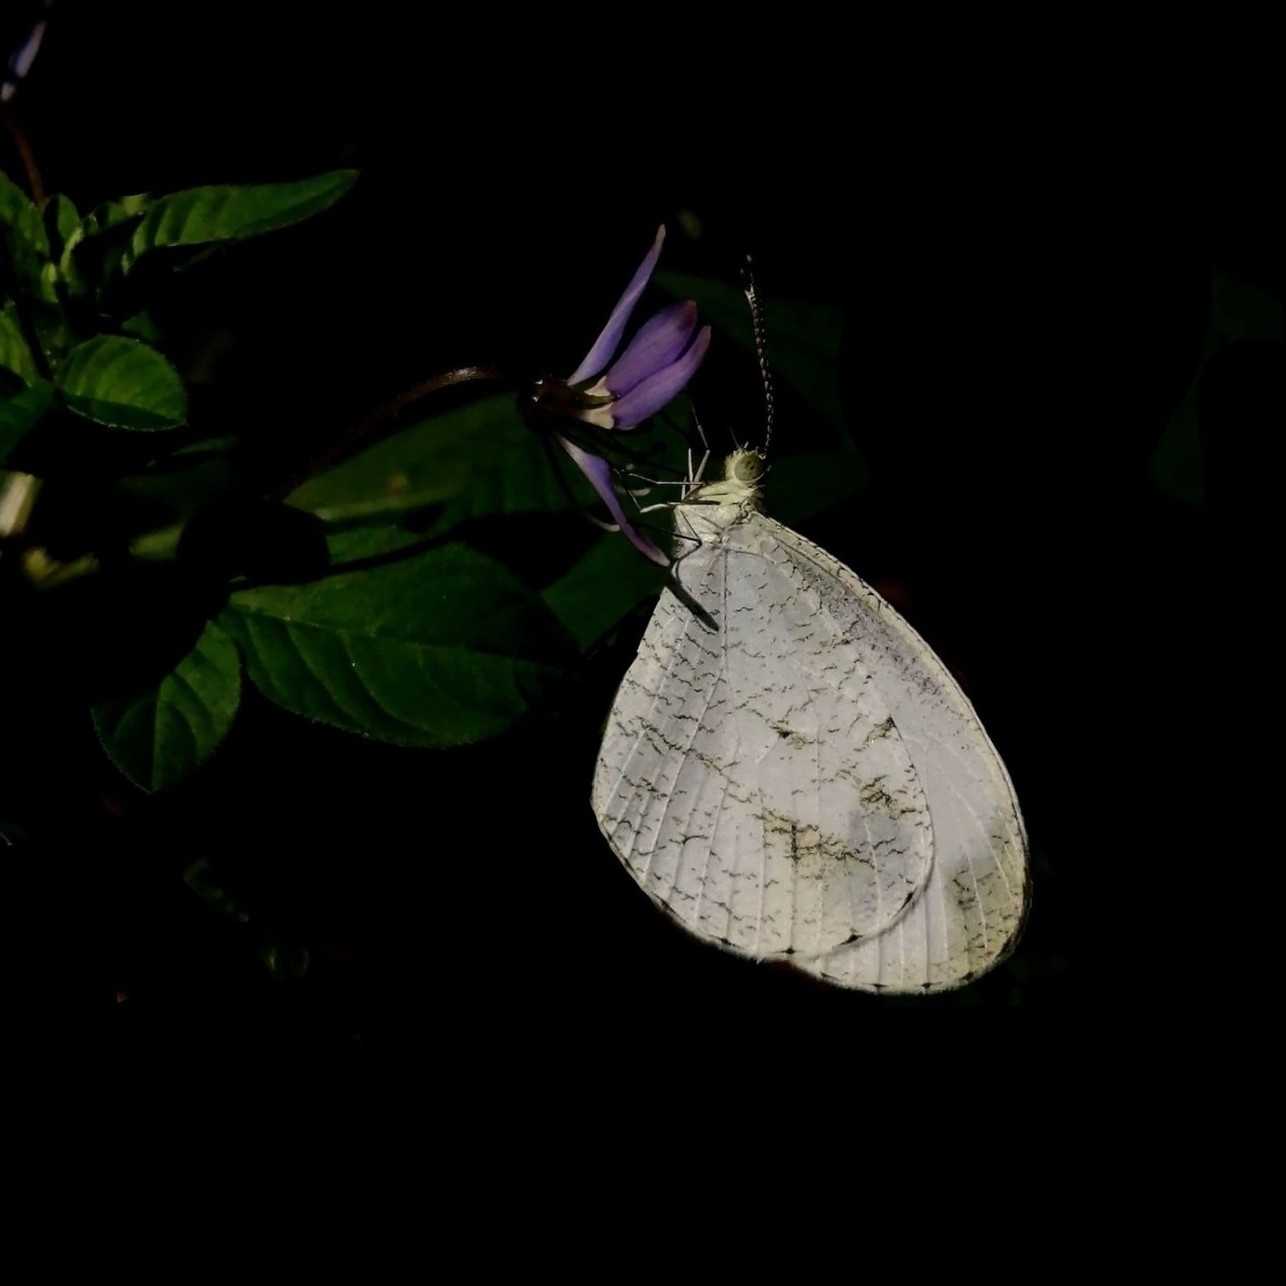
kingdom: Animalia
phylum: Arthropoda
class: Insecta
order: Lepidoptera
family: Pieridae
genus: Leptosia
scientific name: Leptosia nina
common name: Psyche
